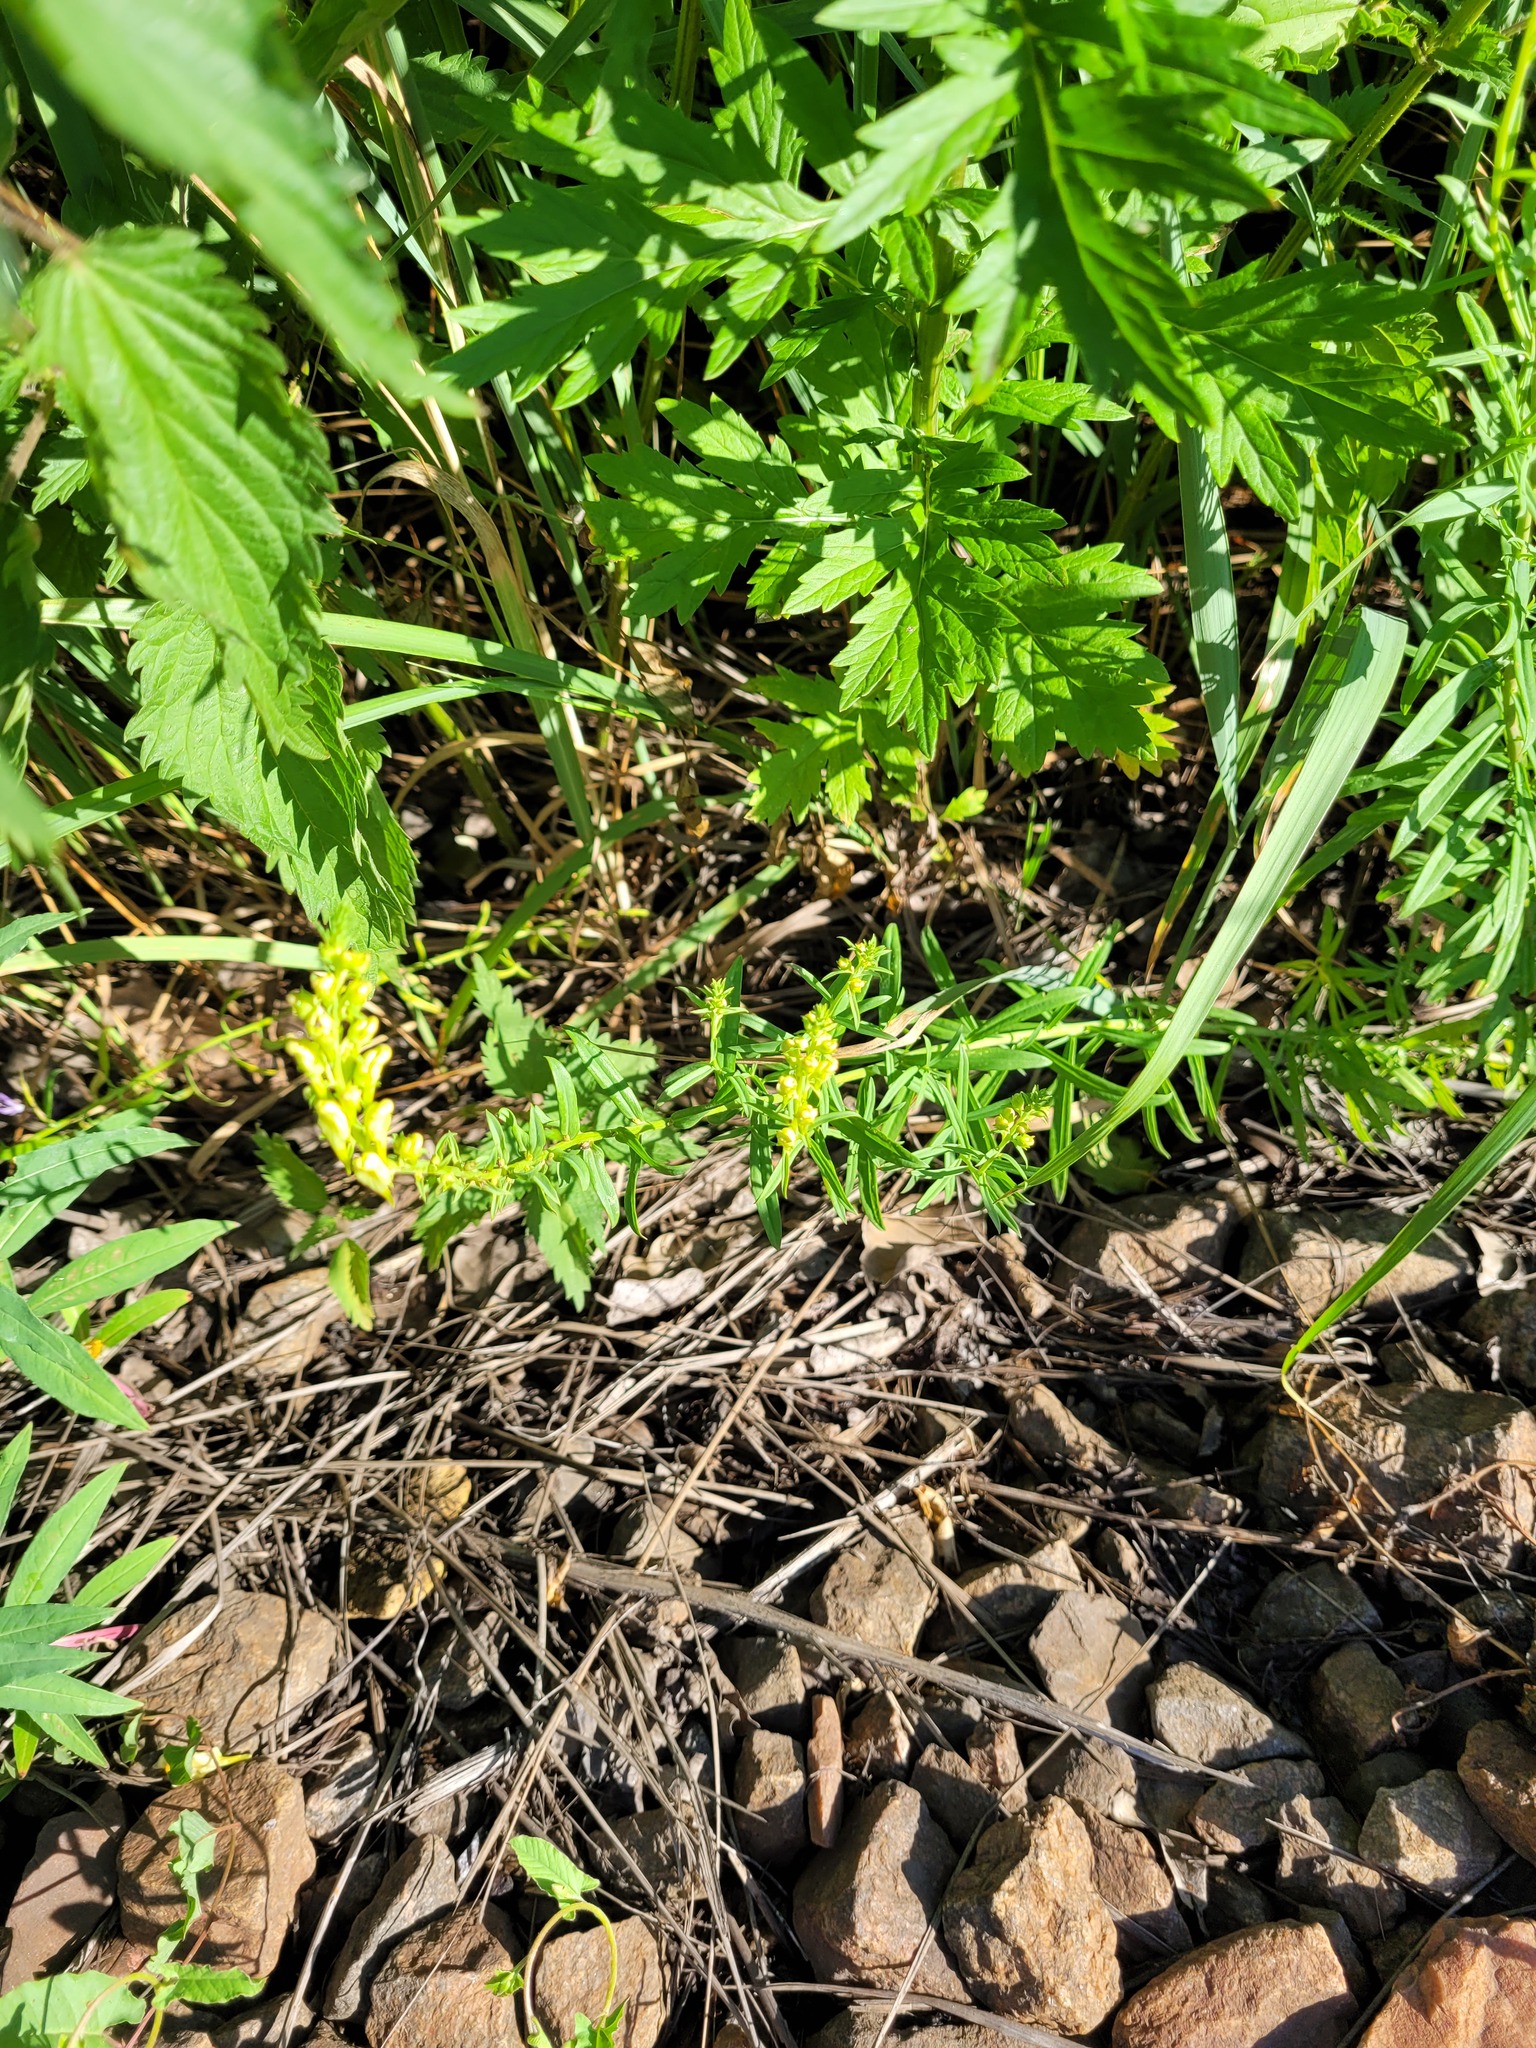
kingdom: Plantae
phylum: Tracheophyta
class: Magnoliopsida
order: Lamiales
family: Plantaginaceae
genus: Linaria
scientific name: Linaria vulgaris
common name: Butter and eggs
